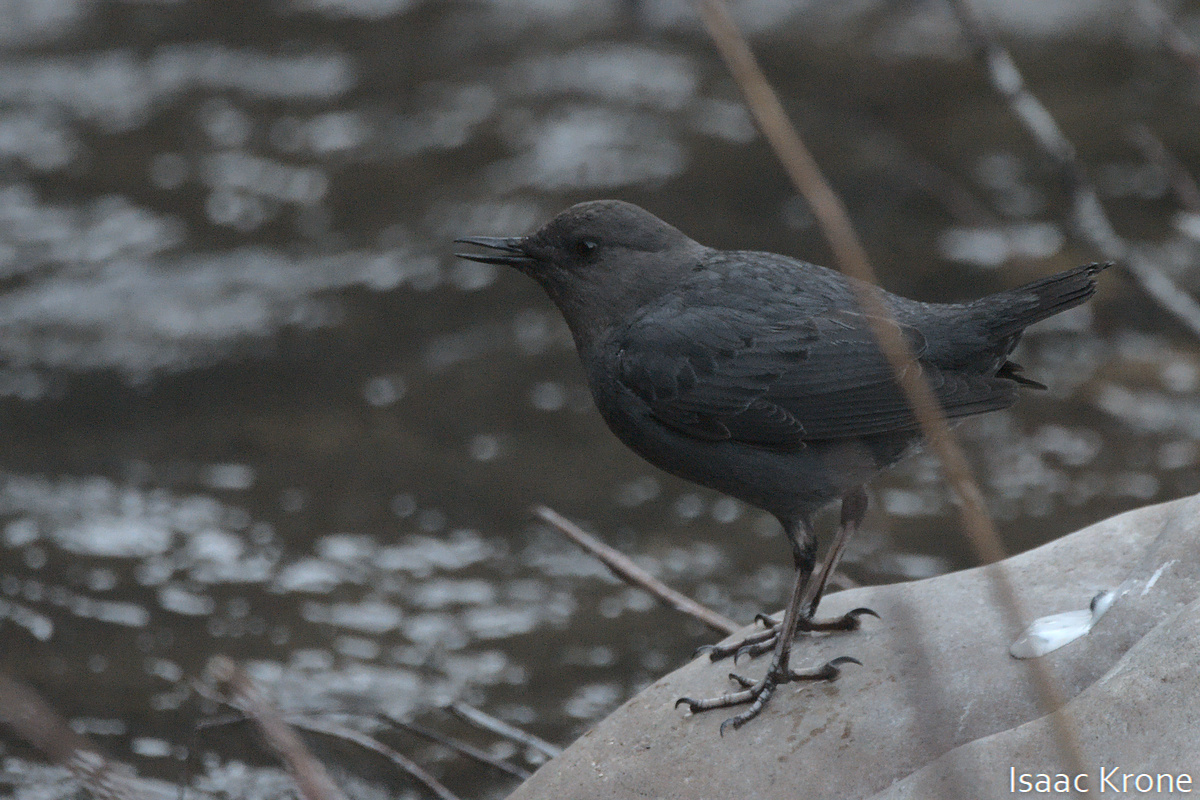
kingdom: Animalia
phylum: Chordata
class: Aves
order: Passeriformes
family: Cinclidae
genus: Cinclus
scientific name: Cinclus mexicanus
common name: American dipper
